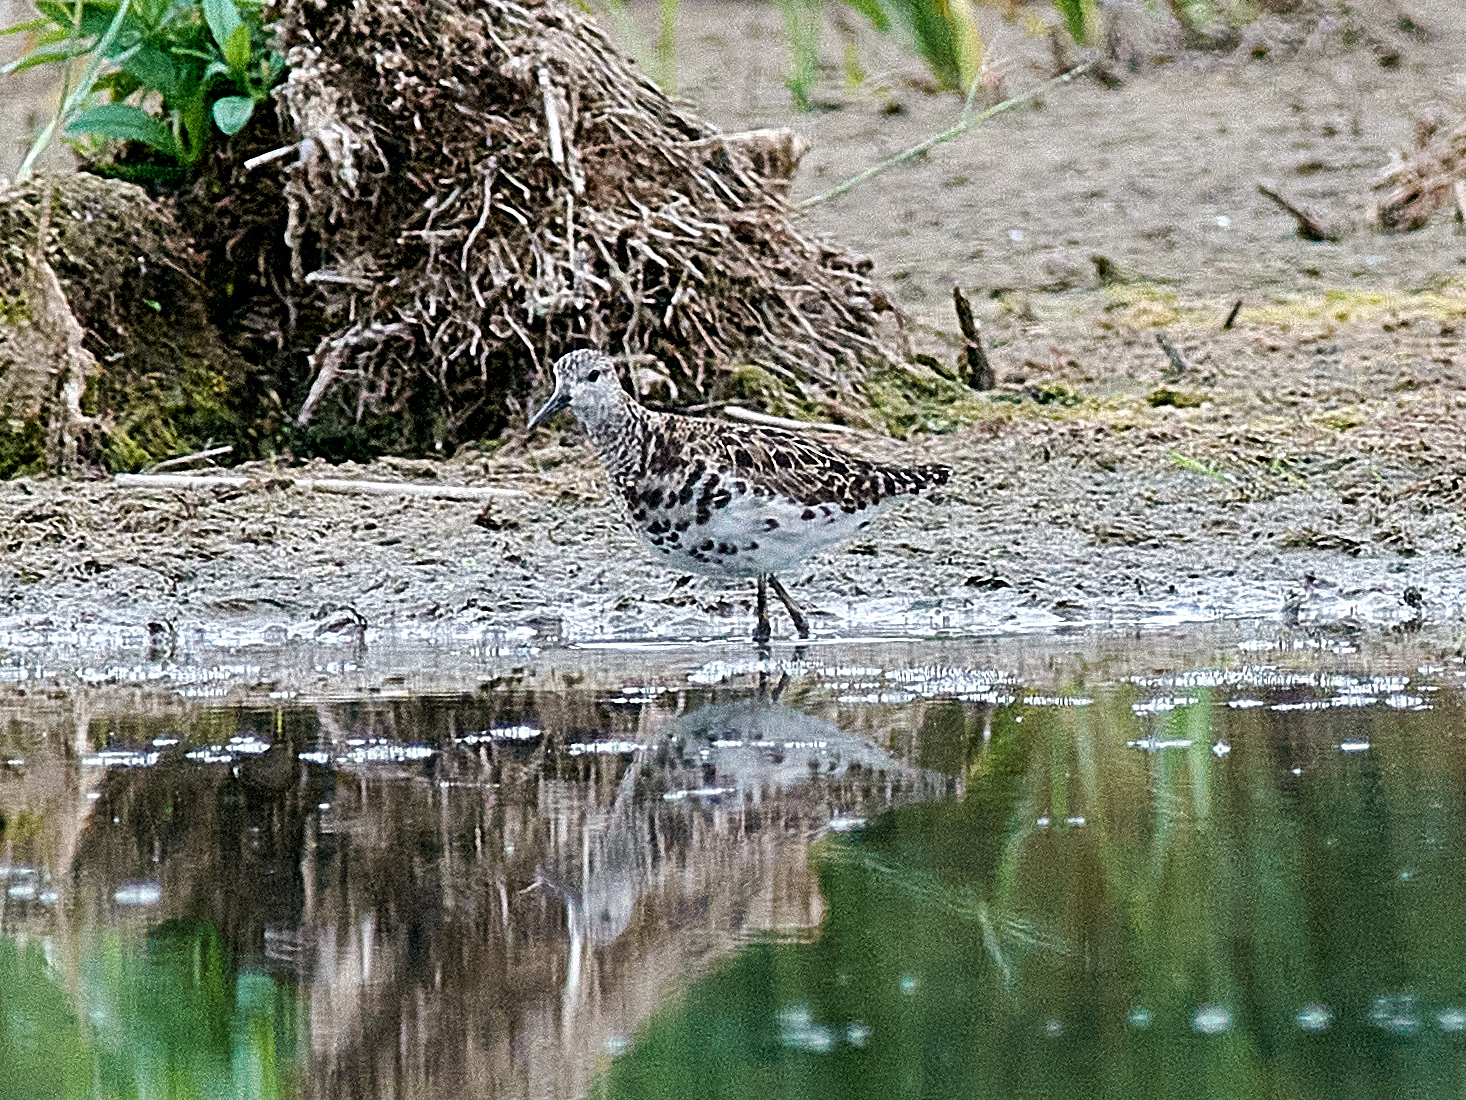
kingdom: Animalia
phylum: Chordata
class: Aves
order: Charadriiformes
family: Scolopacidae
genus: Calidris
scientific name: Calidris pugnax
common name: Ruff
